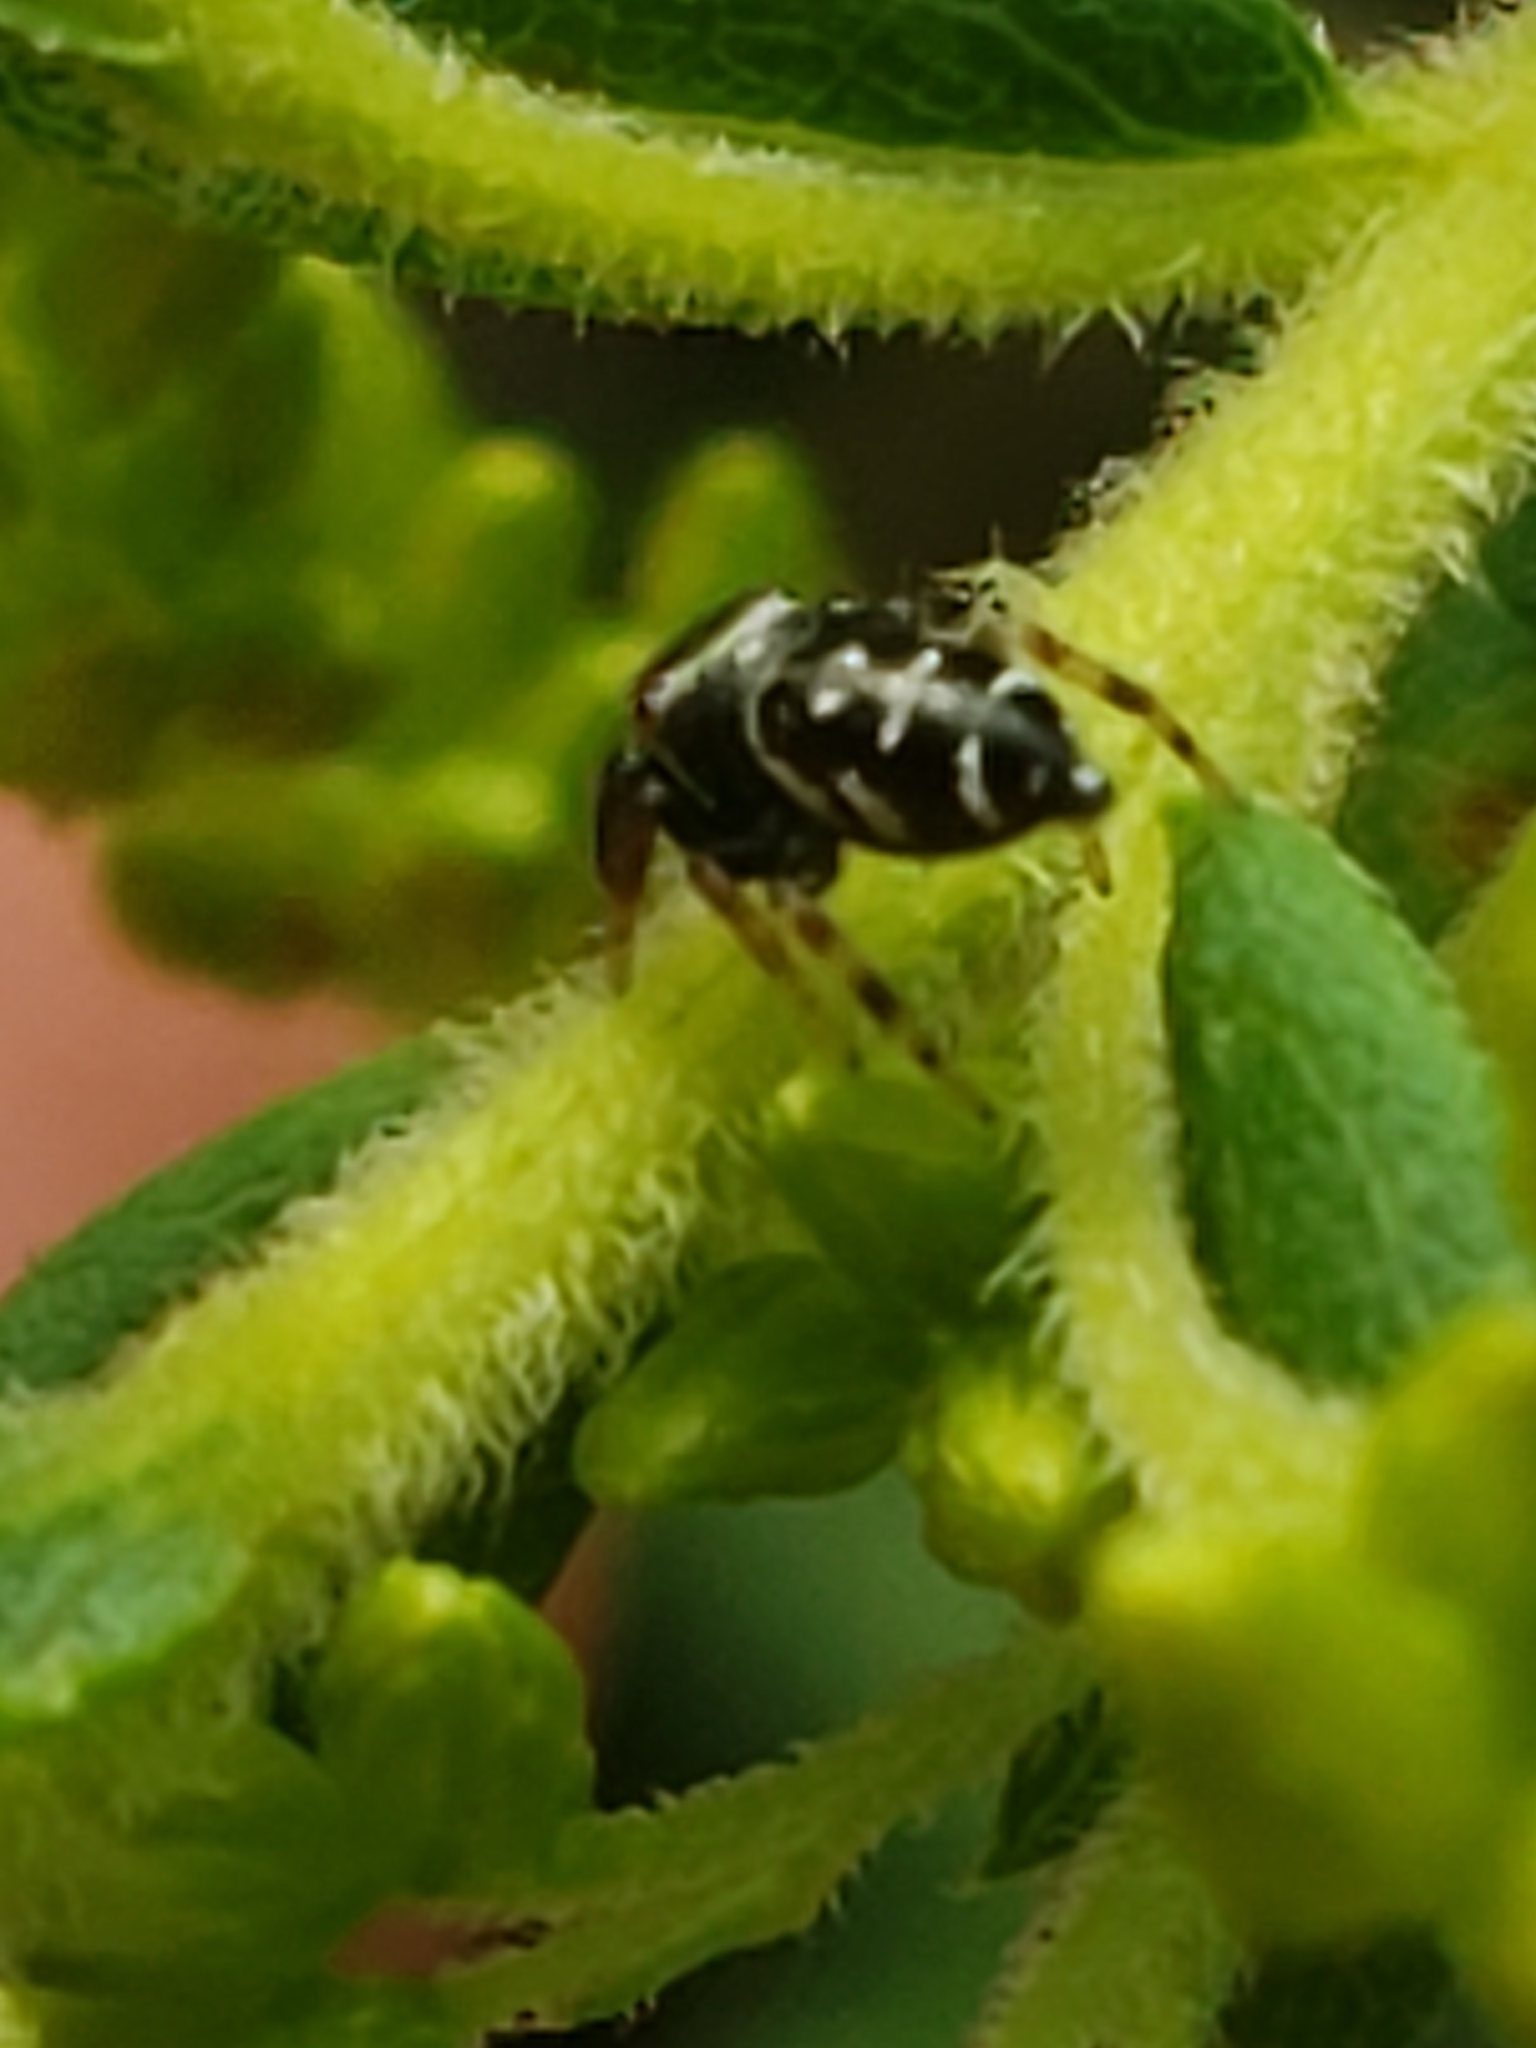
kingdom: Animalia
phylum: Arthropoda
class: Arachnida
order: Araneae
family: Salticidae
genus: Paraphidippus
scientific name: Paraphidippus aurantius
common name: Jumping spiders
